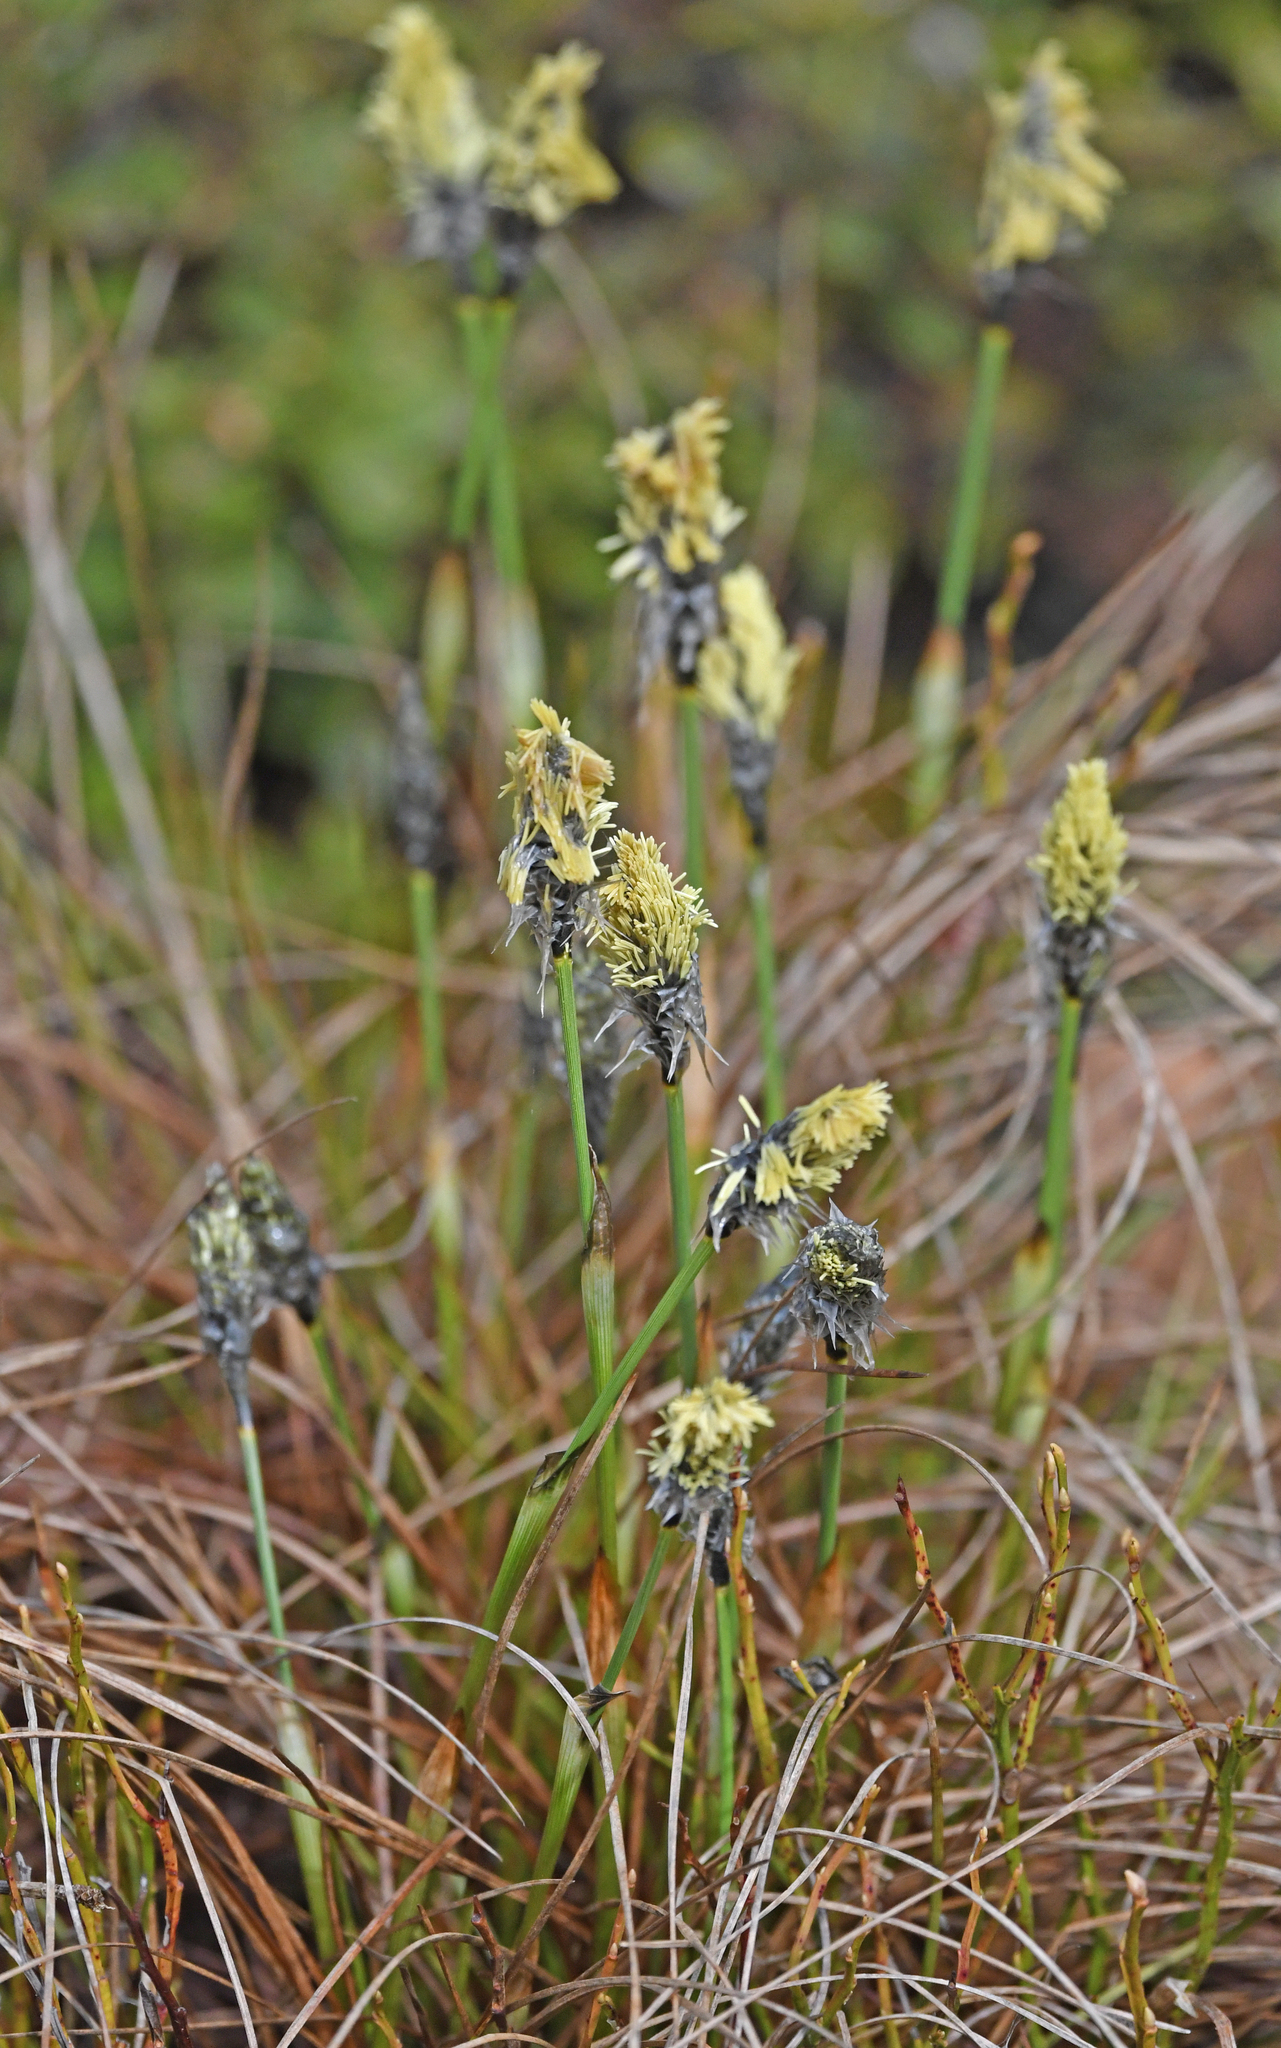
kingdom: Plantae
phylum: Tracheophyta
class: Liliopsida
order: Poales
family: Cyperaceae
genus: Eriophorum
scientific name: Eriophorum vaginatum
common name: Hare's-tail cottongrass
